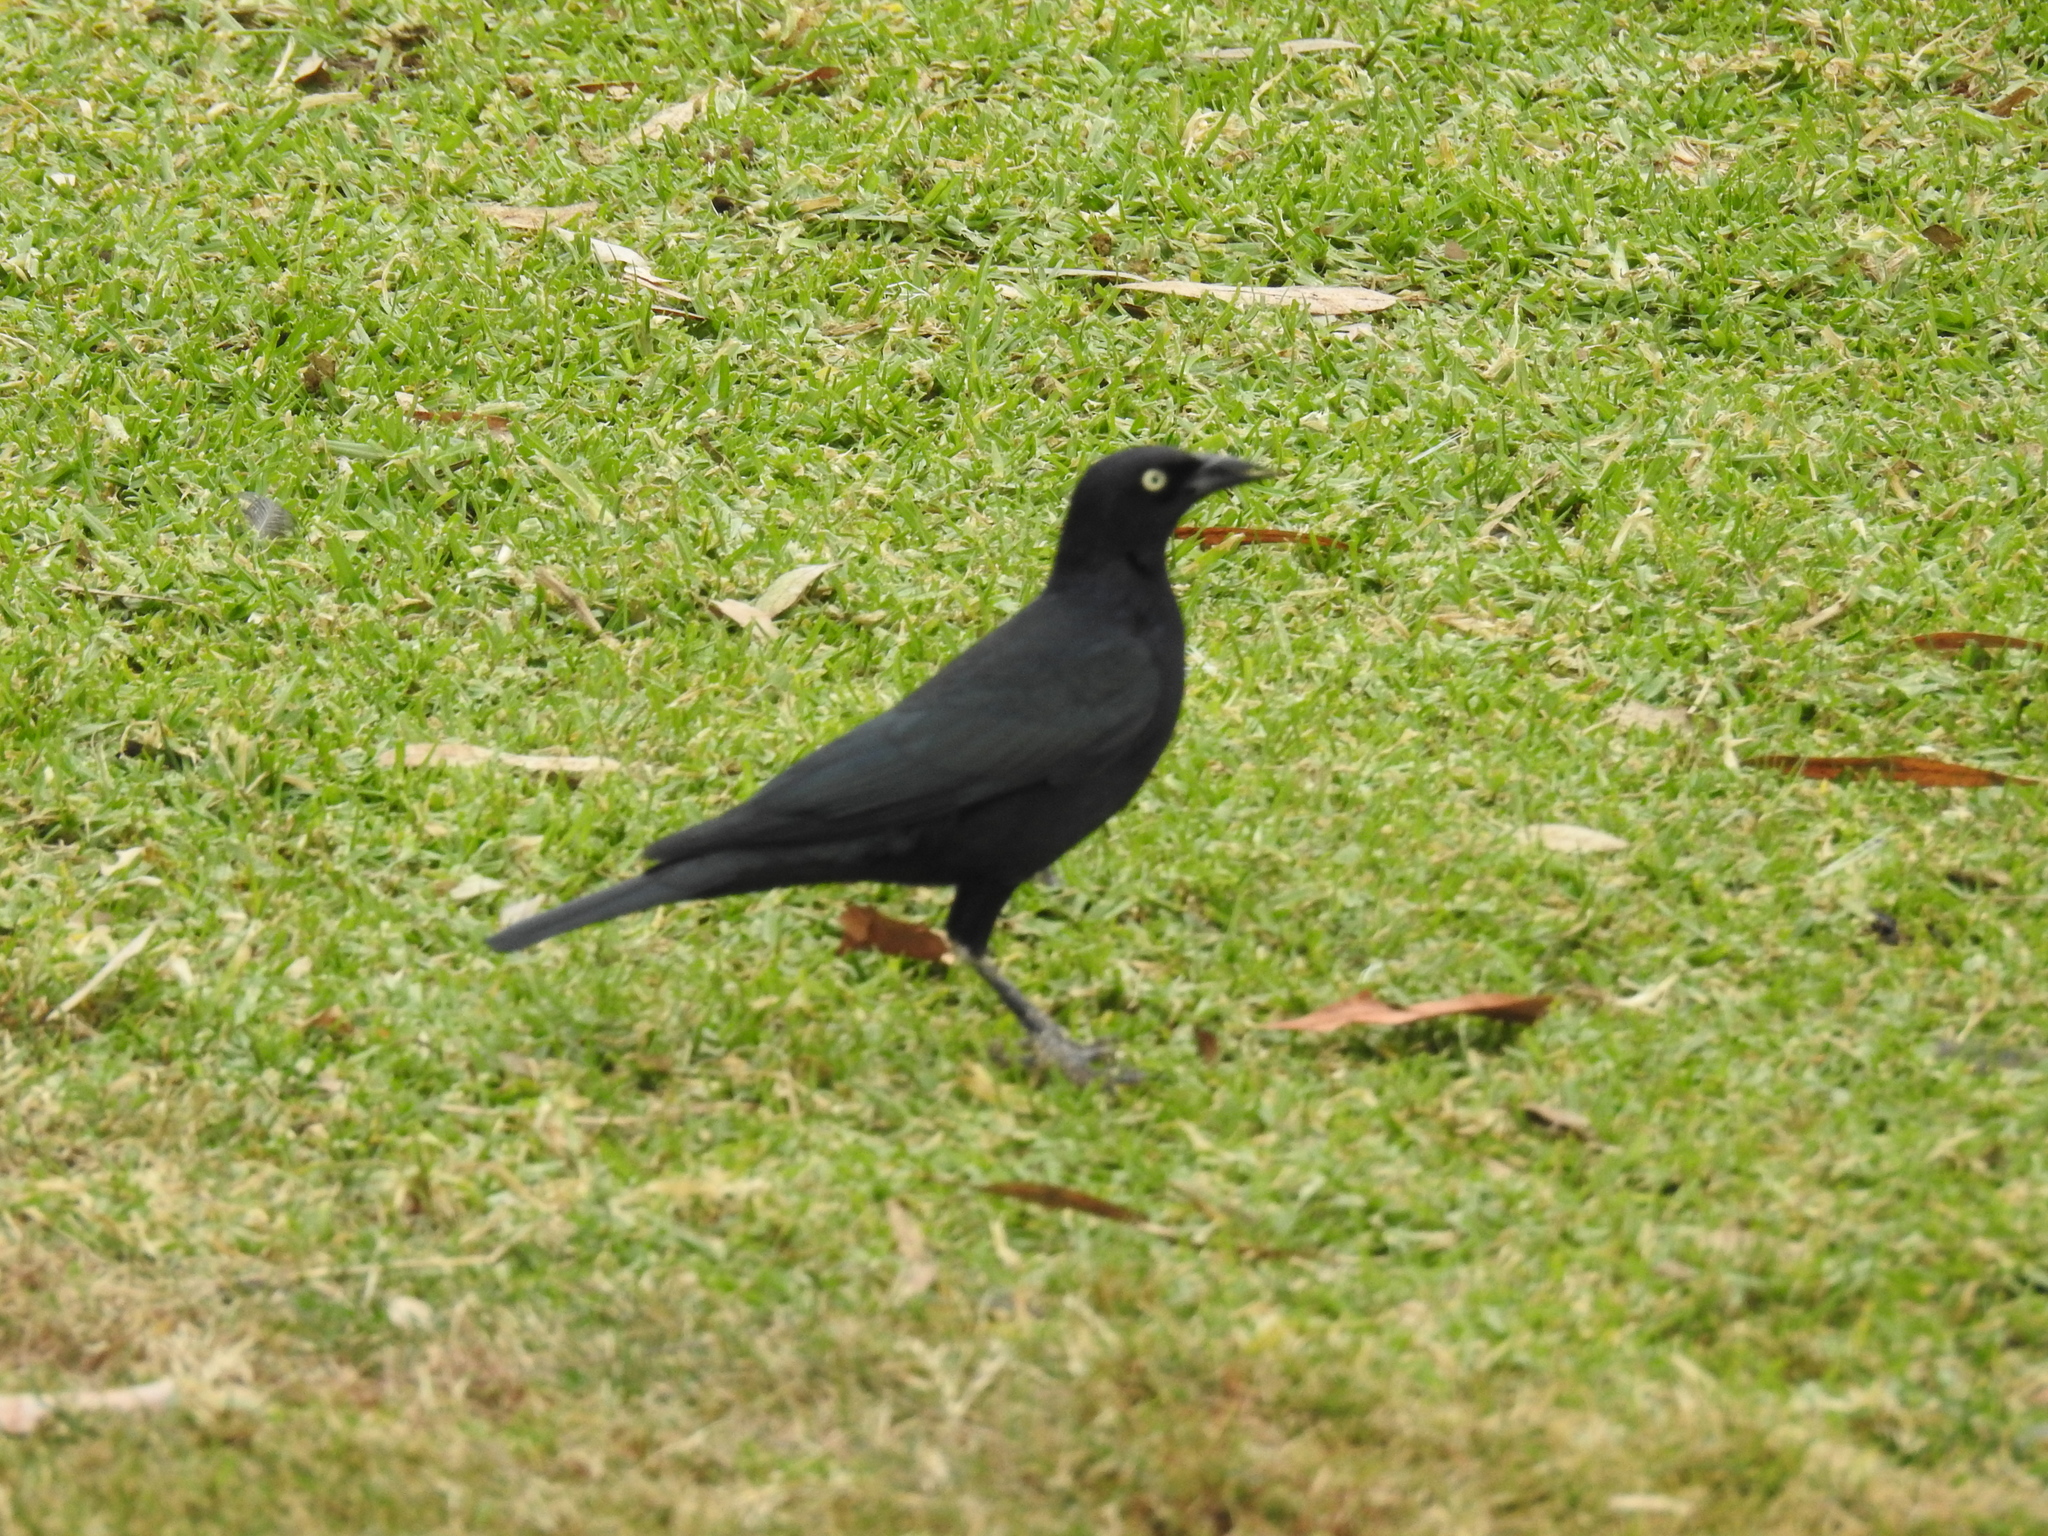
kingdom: Animalia
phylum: Chordata
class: Aves
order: Passeriformes
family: Icteridae
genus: Euphagus
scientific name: Euphagus cyanocephalus
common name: Brewer's blackbird
